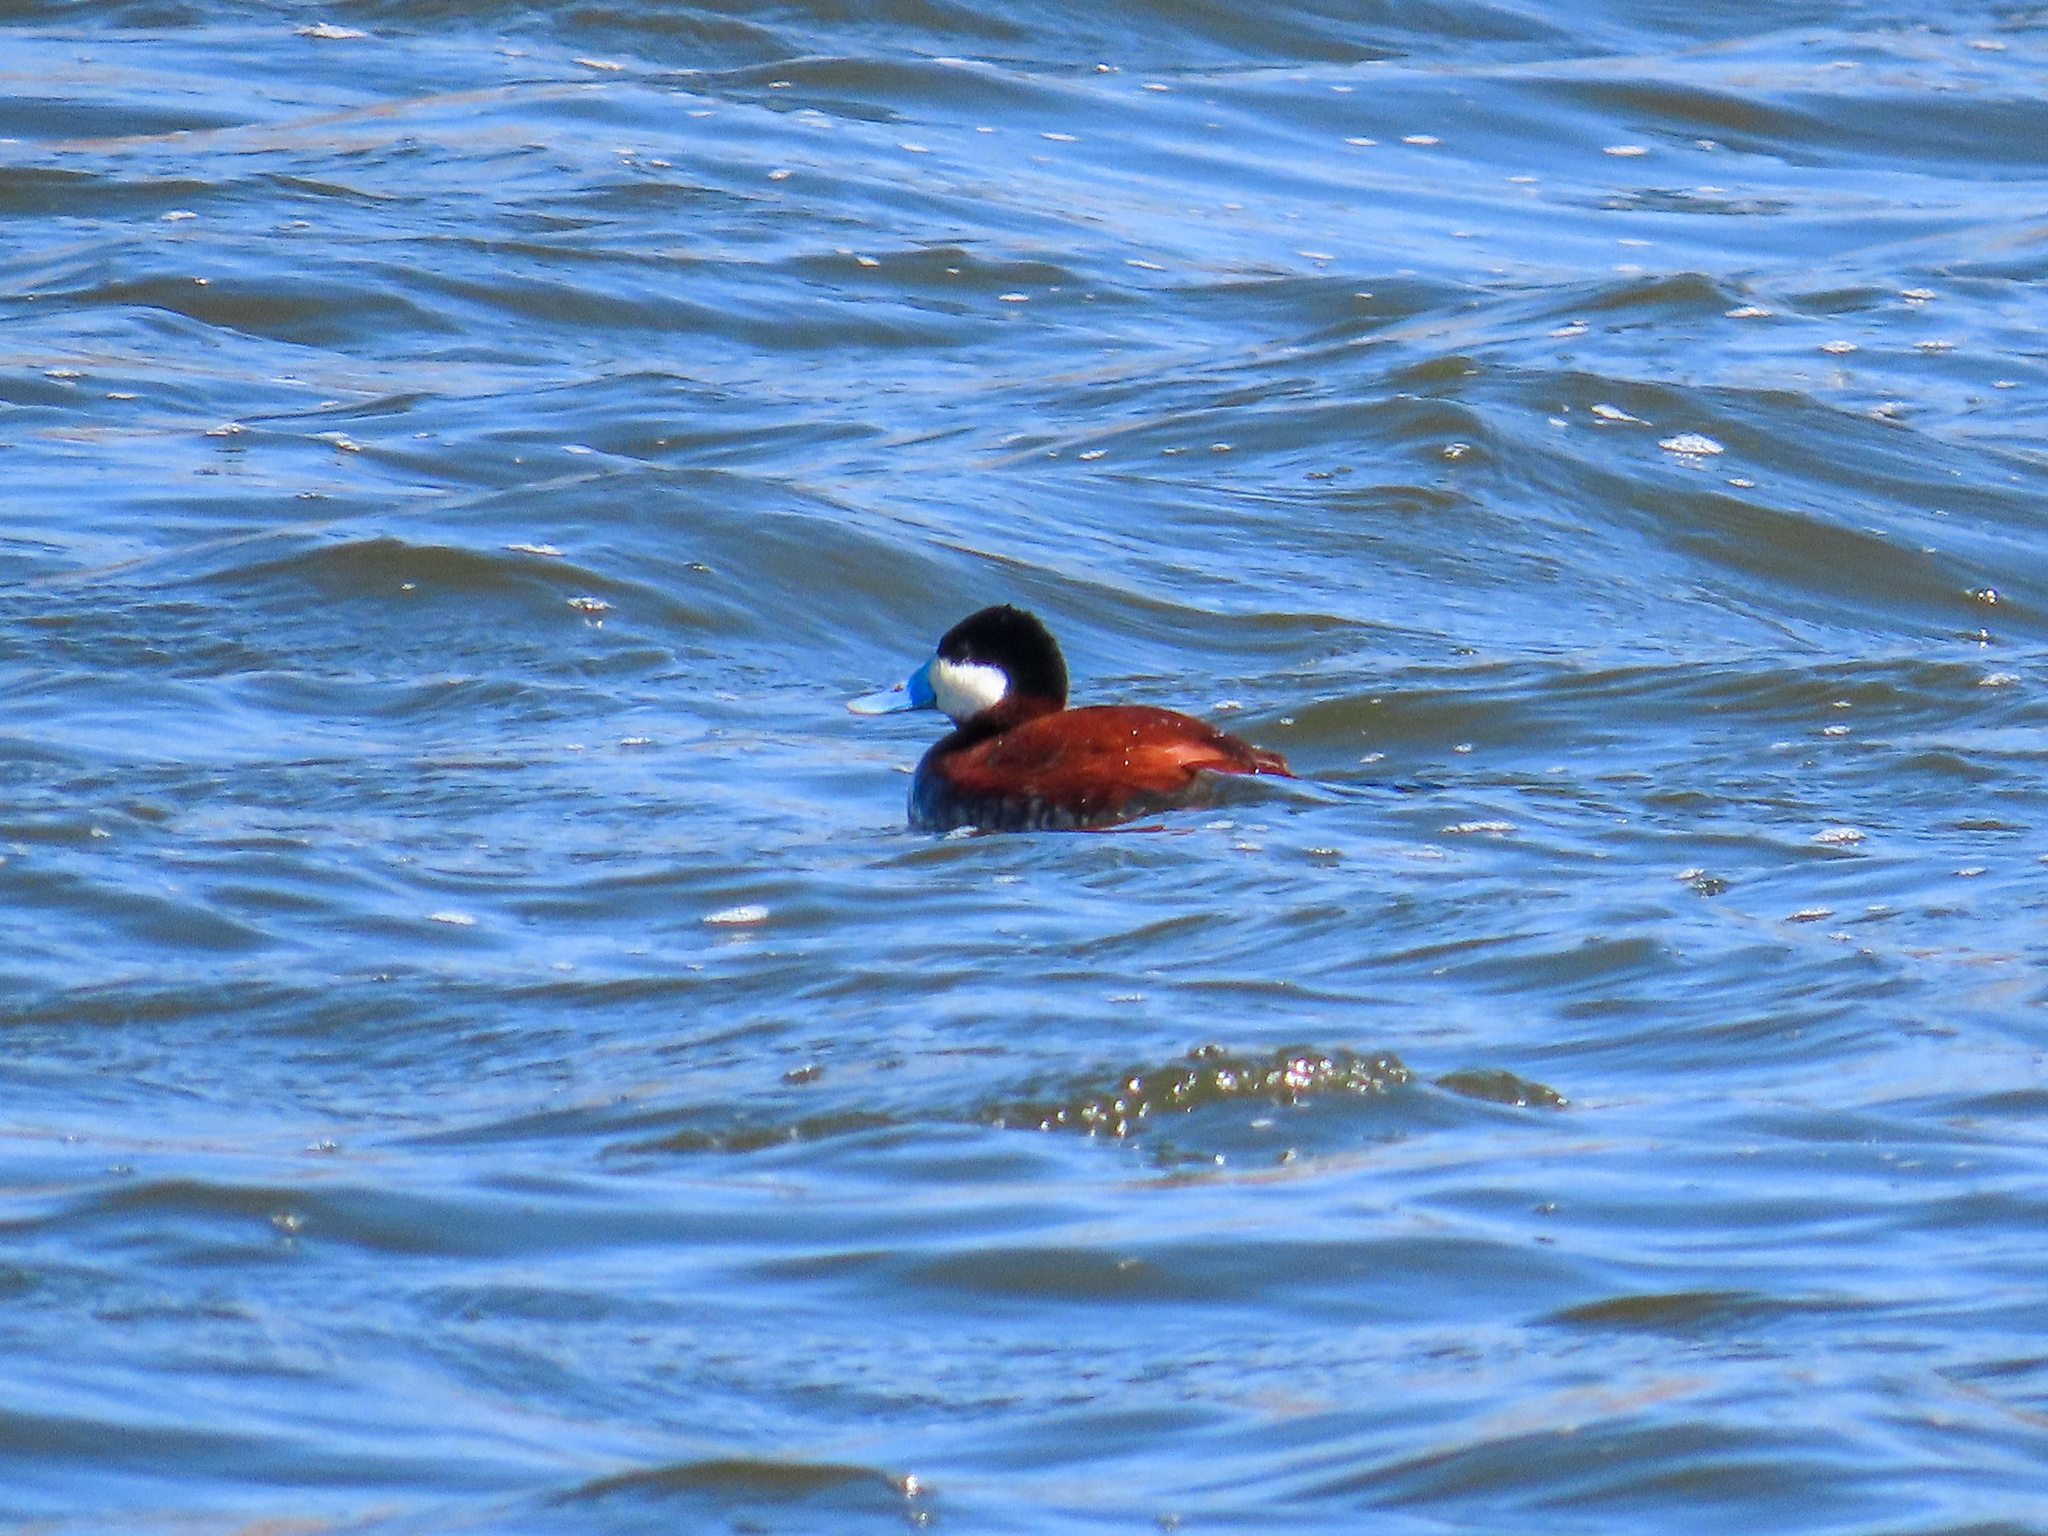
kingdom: Animalia
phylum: Chordata
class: Aves
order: Anseriformes
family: Anatidae
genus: Oxyura
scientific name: Oxyura jamaicensis
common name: Ruddy duck
